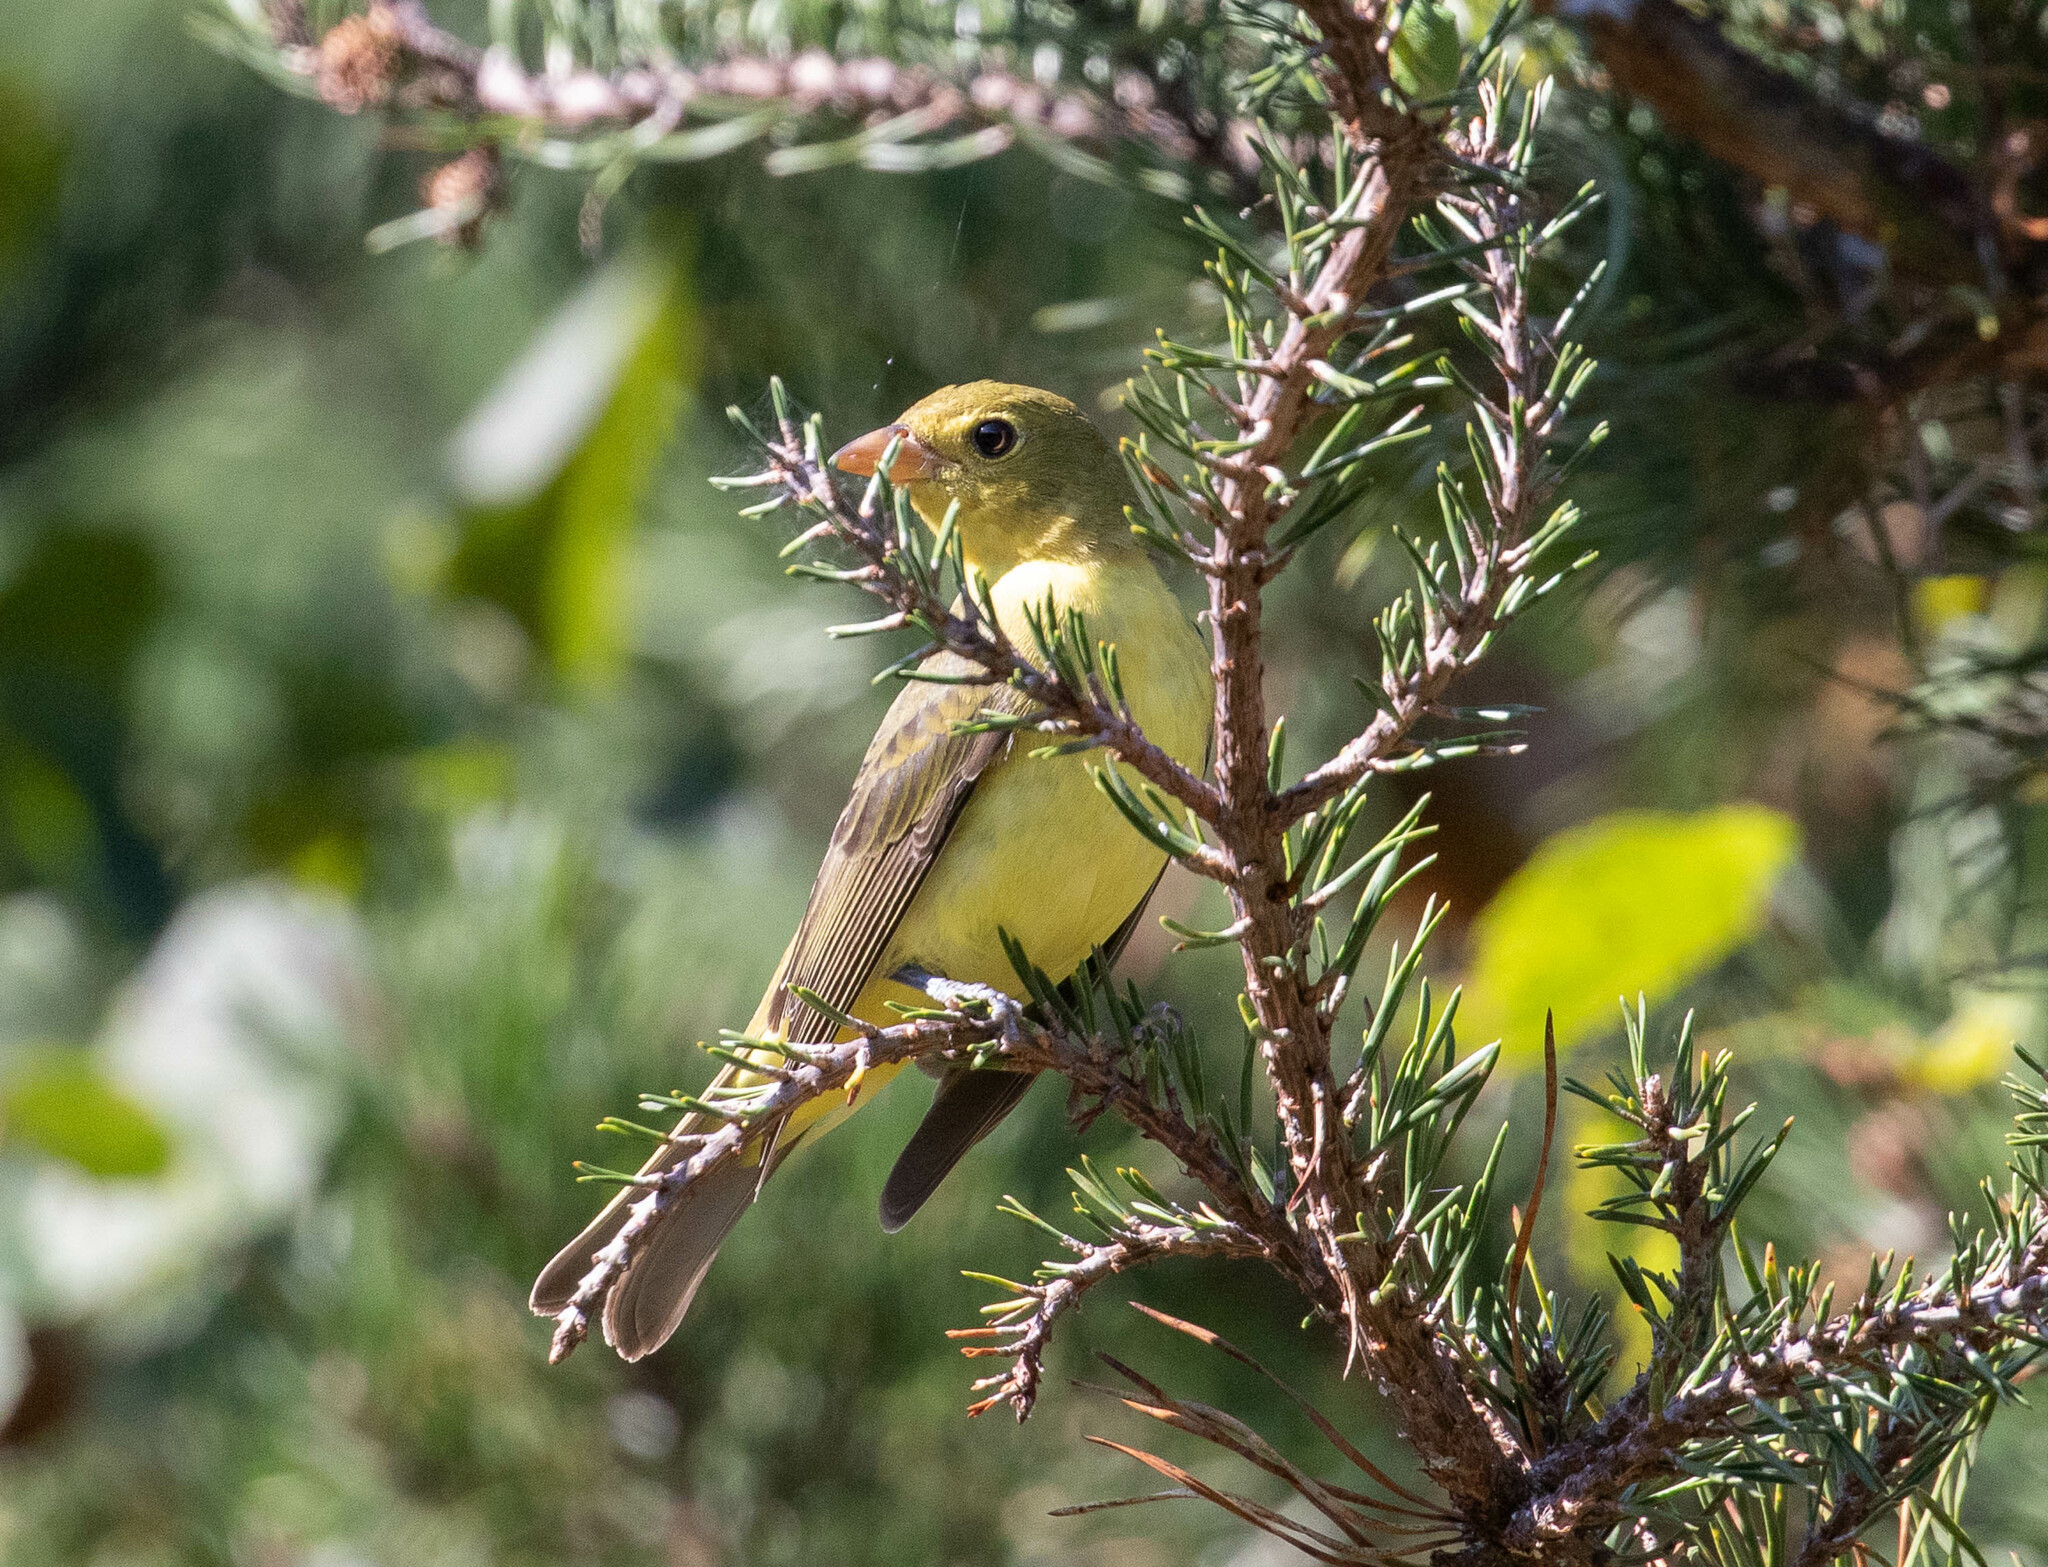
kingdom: Animalia
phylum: Chordata
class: Aves
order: Passeriformes
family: Cardinalidae
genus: Piranga
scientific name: Piranga olivacea
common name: Scarlet tanager
